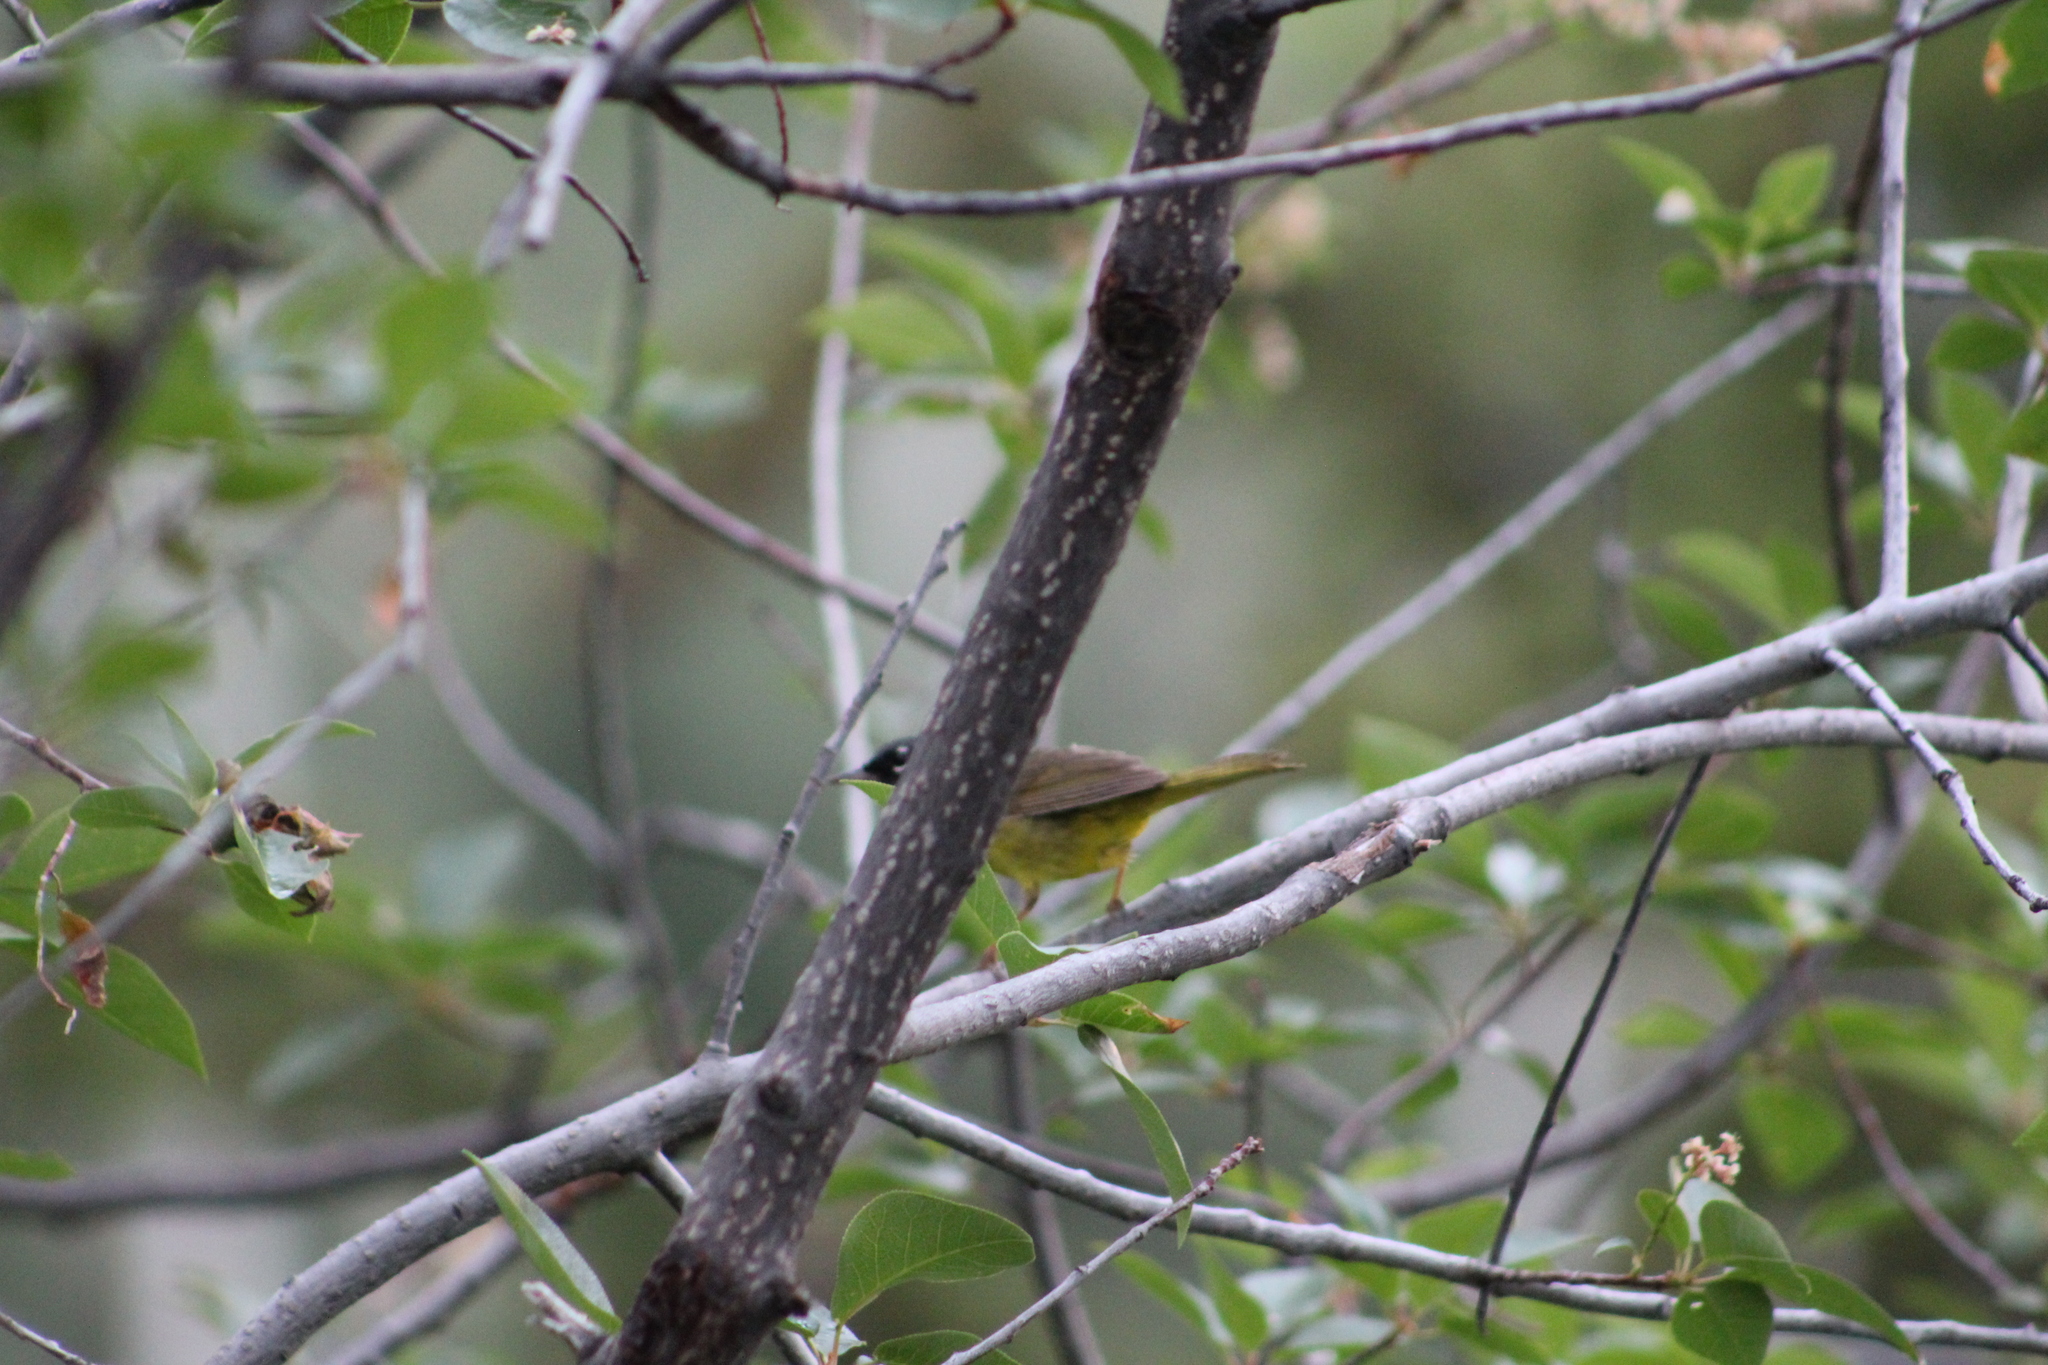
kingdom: Animalia
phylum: Chordata
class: Aves
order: Passeriformes
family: Parulidae
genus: Geothlypis
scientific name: Geothlypis tolmiei
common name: Macgillivray's warbler
